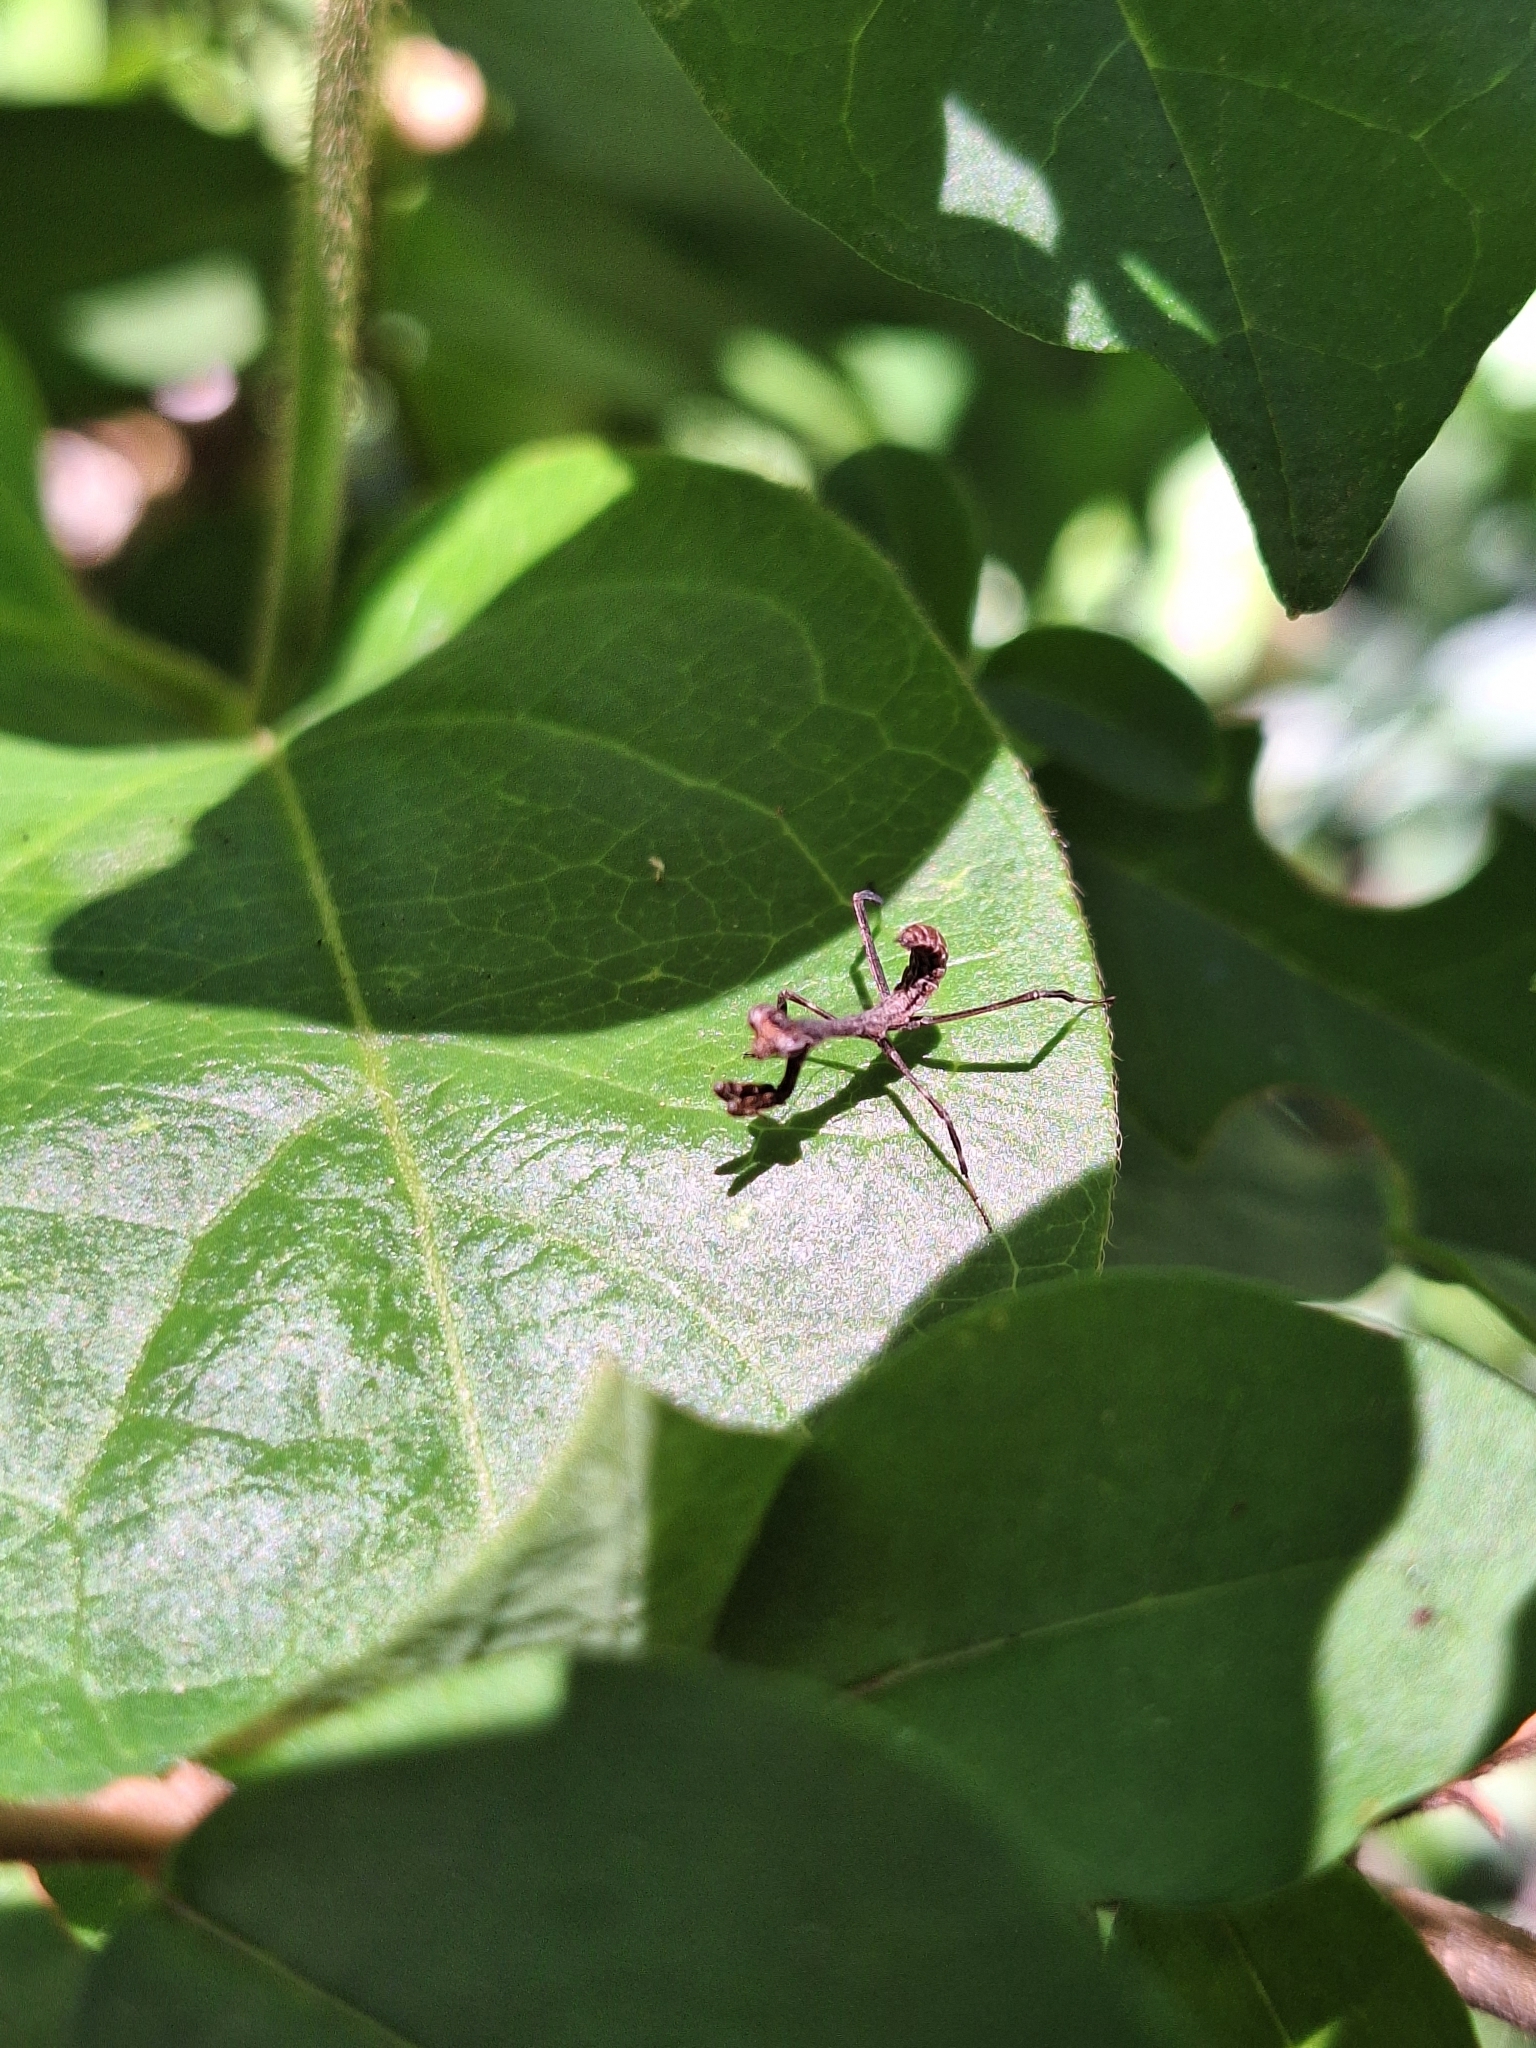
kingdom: Animalia
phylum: Arthropoda
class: Insecta
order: Mantodea
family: Mantidae
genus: Pseudovates
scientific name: Pseudovates iheringi
